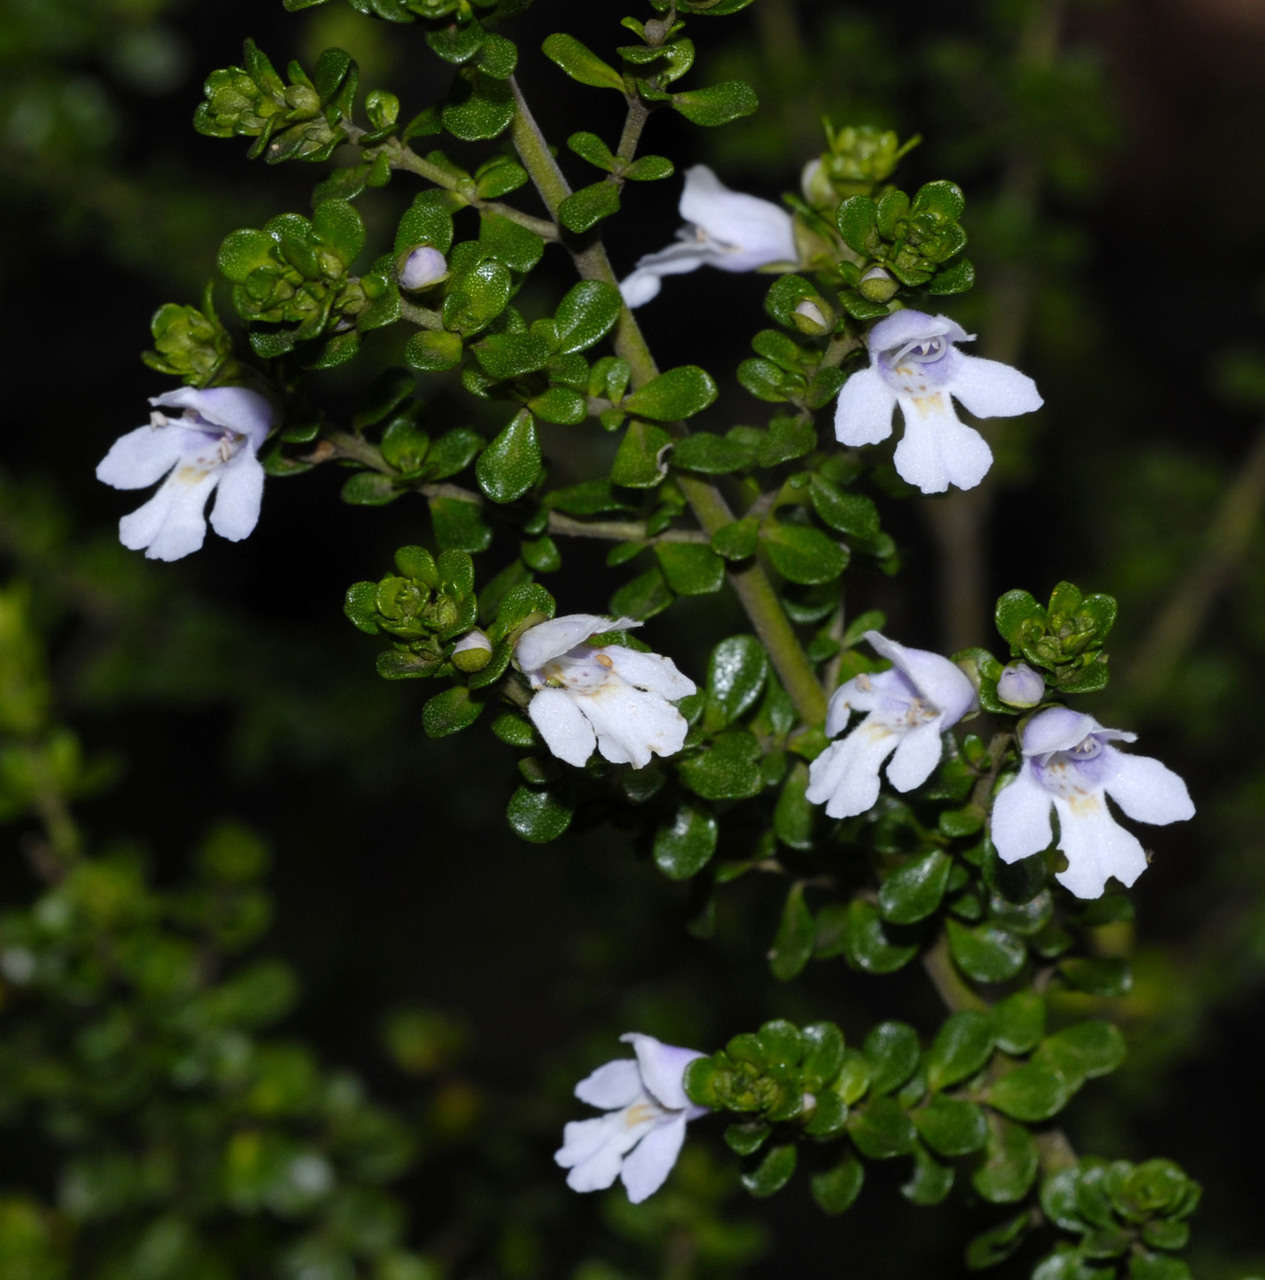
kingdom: Plantae
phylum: Tracheophyta
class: Magnoliopsida
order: Lamiales
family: Lamiaceae
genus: Prostanthera
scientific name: Prostanthera cuneata
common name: Alpine mintbush
